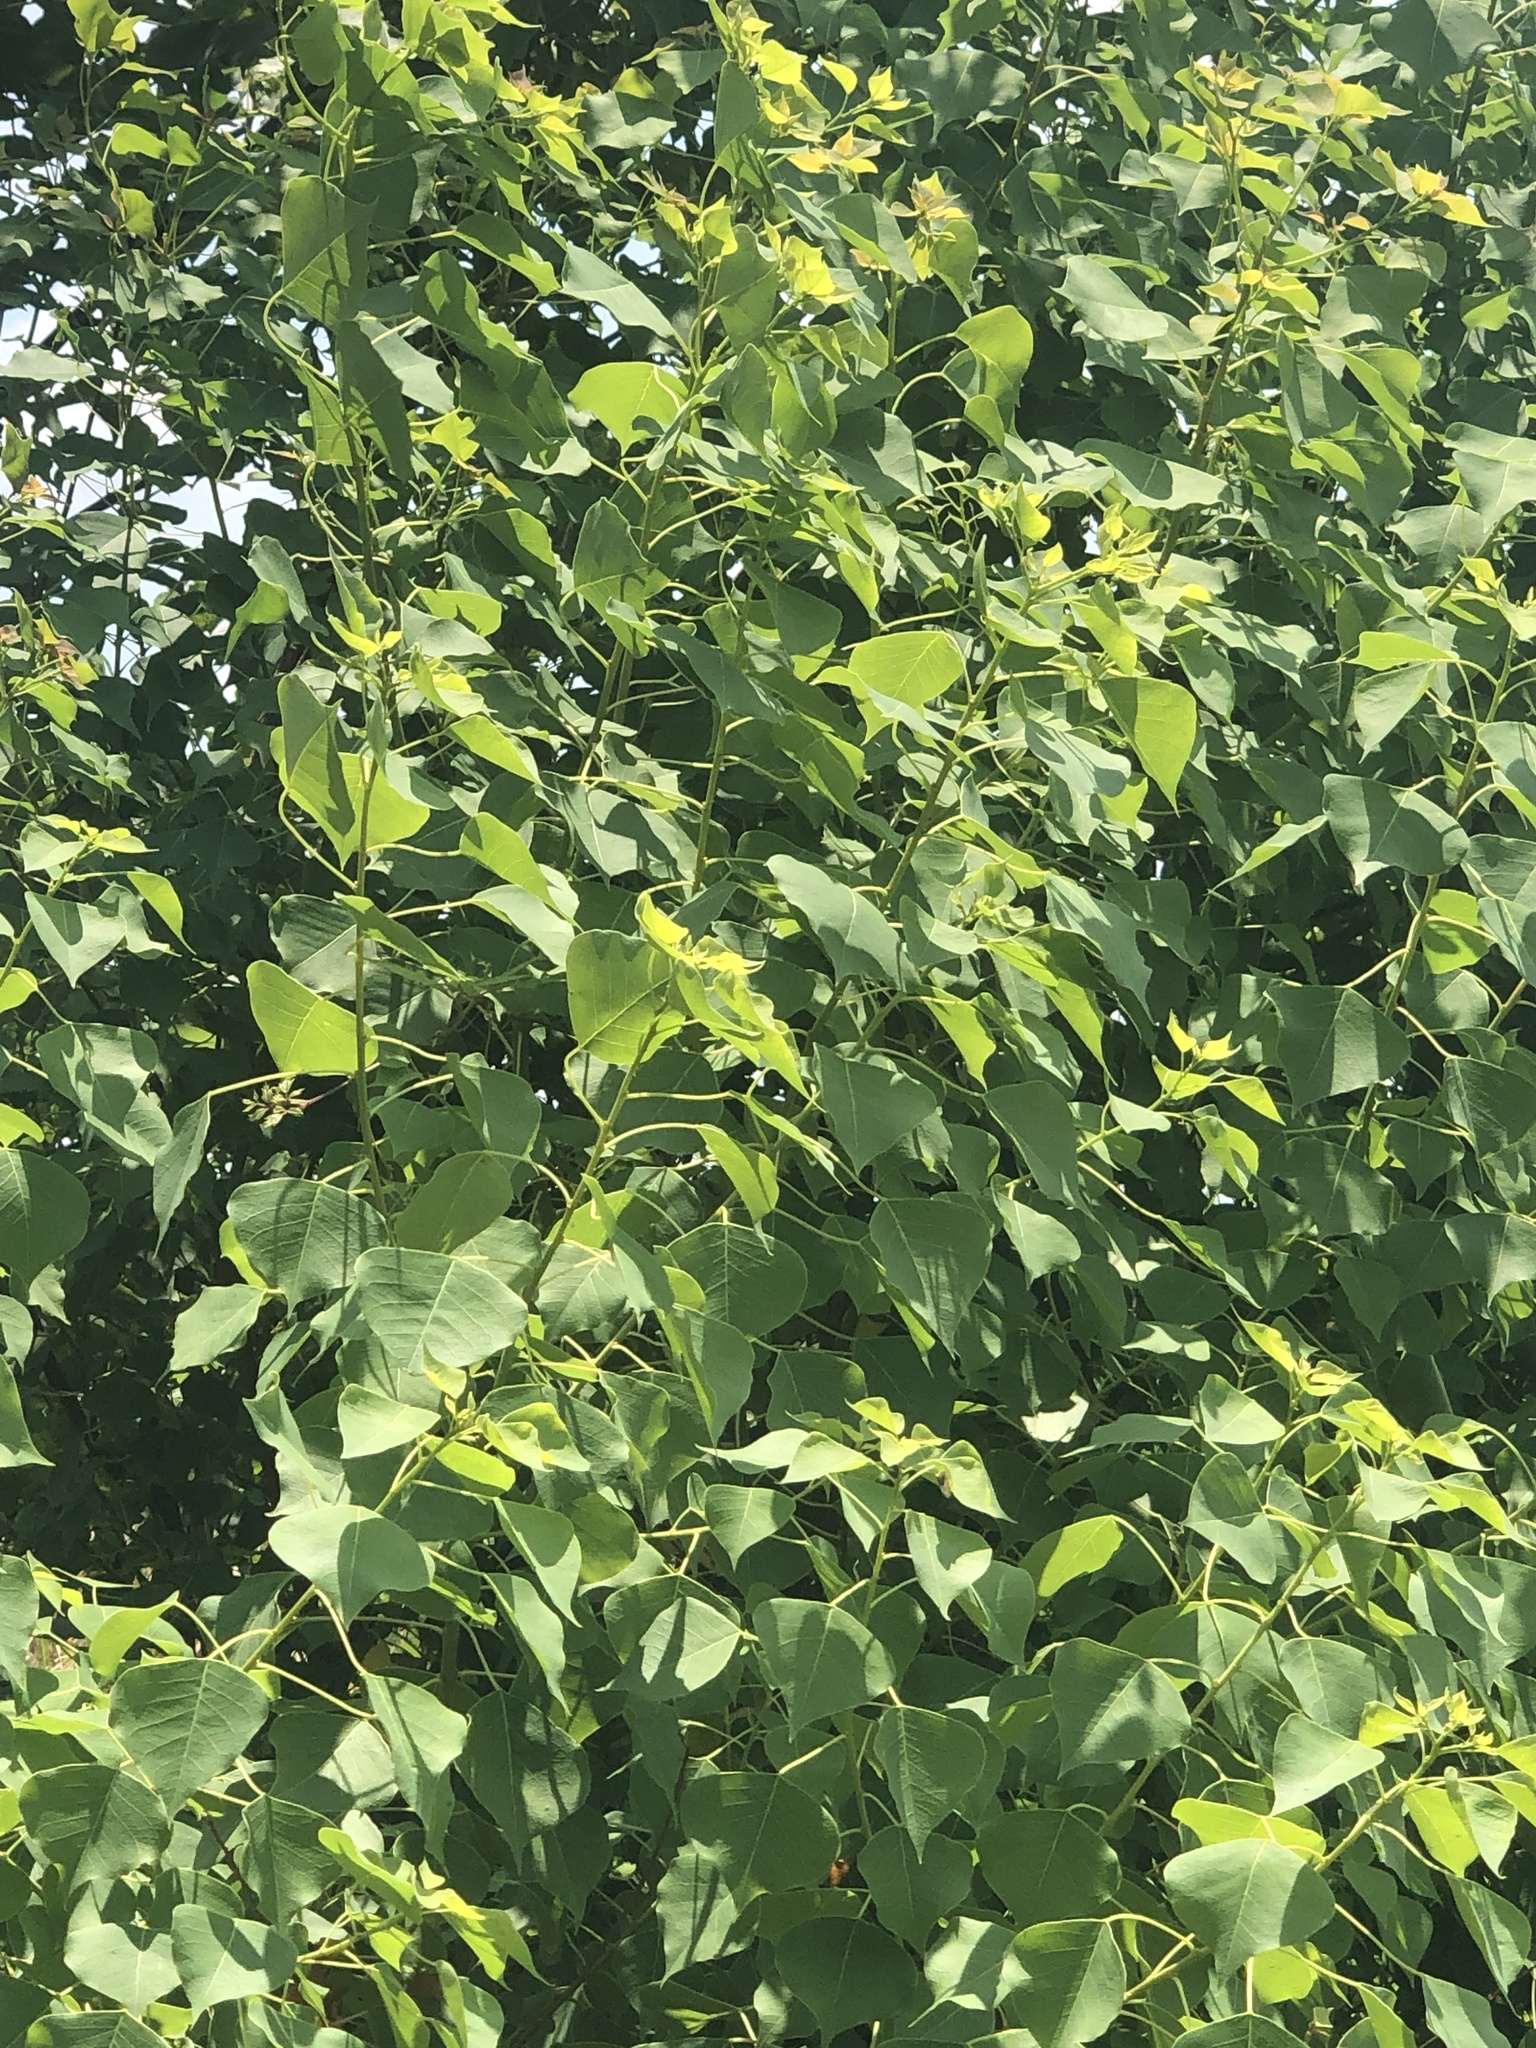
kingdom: Plantae
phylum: Tracheophyta
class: Magnoliopsida
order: Malpighiales
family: Euphorbiaceae
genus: Triadica
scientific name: Triadica sebifera
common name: Chinese tallow
